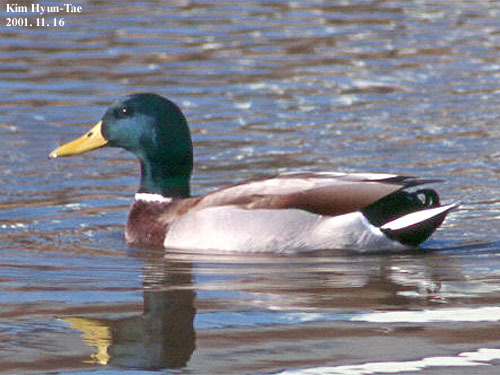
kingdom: Animalia
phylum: Chordata
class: Aves
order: Anseriformes
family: Anatidae
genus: Anas
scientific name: Anas platyrhynchos
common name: Mallard
